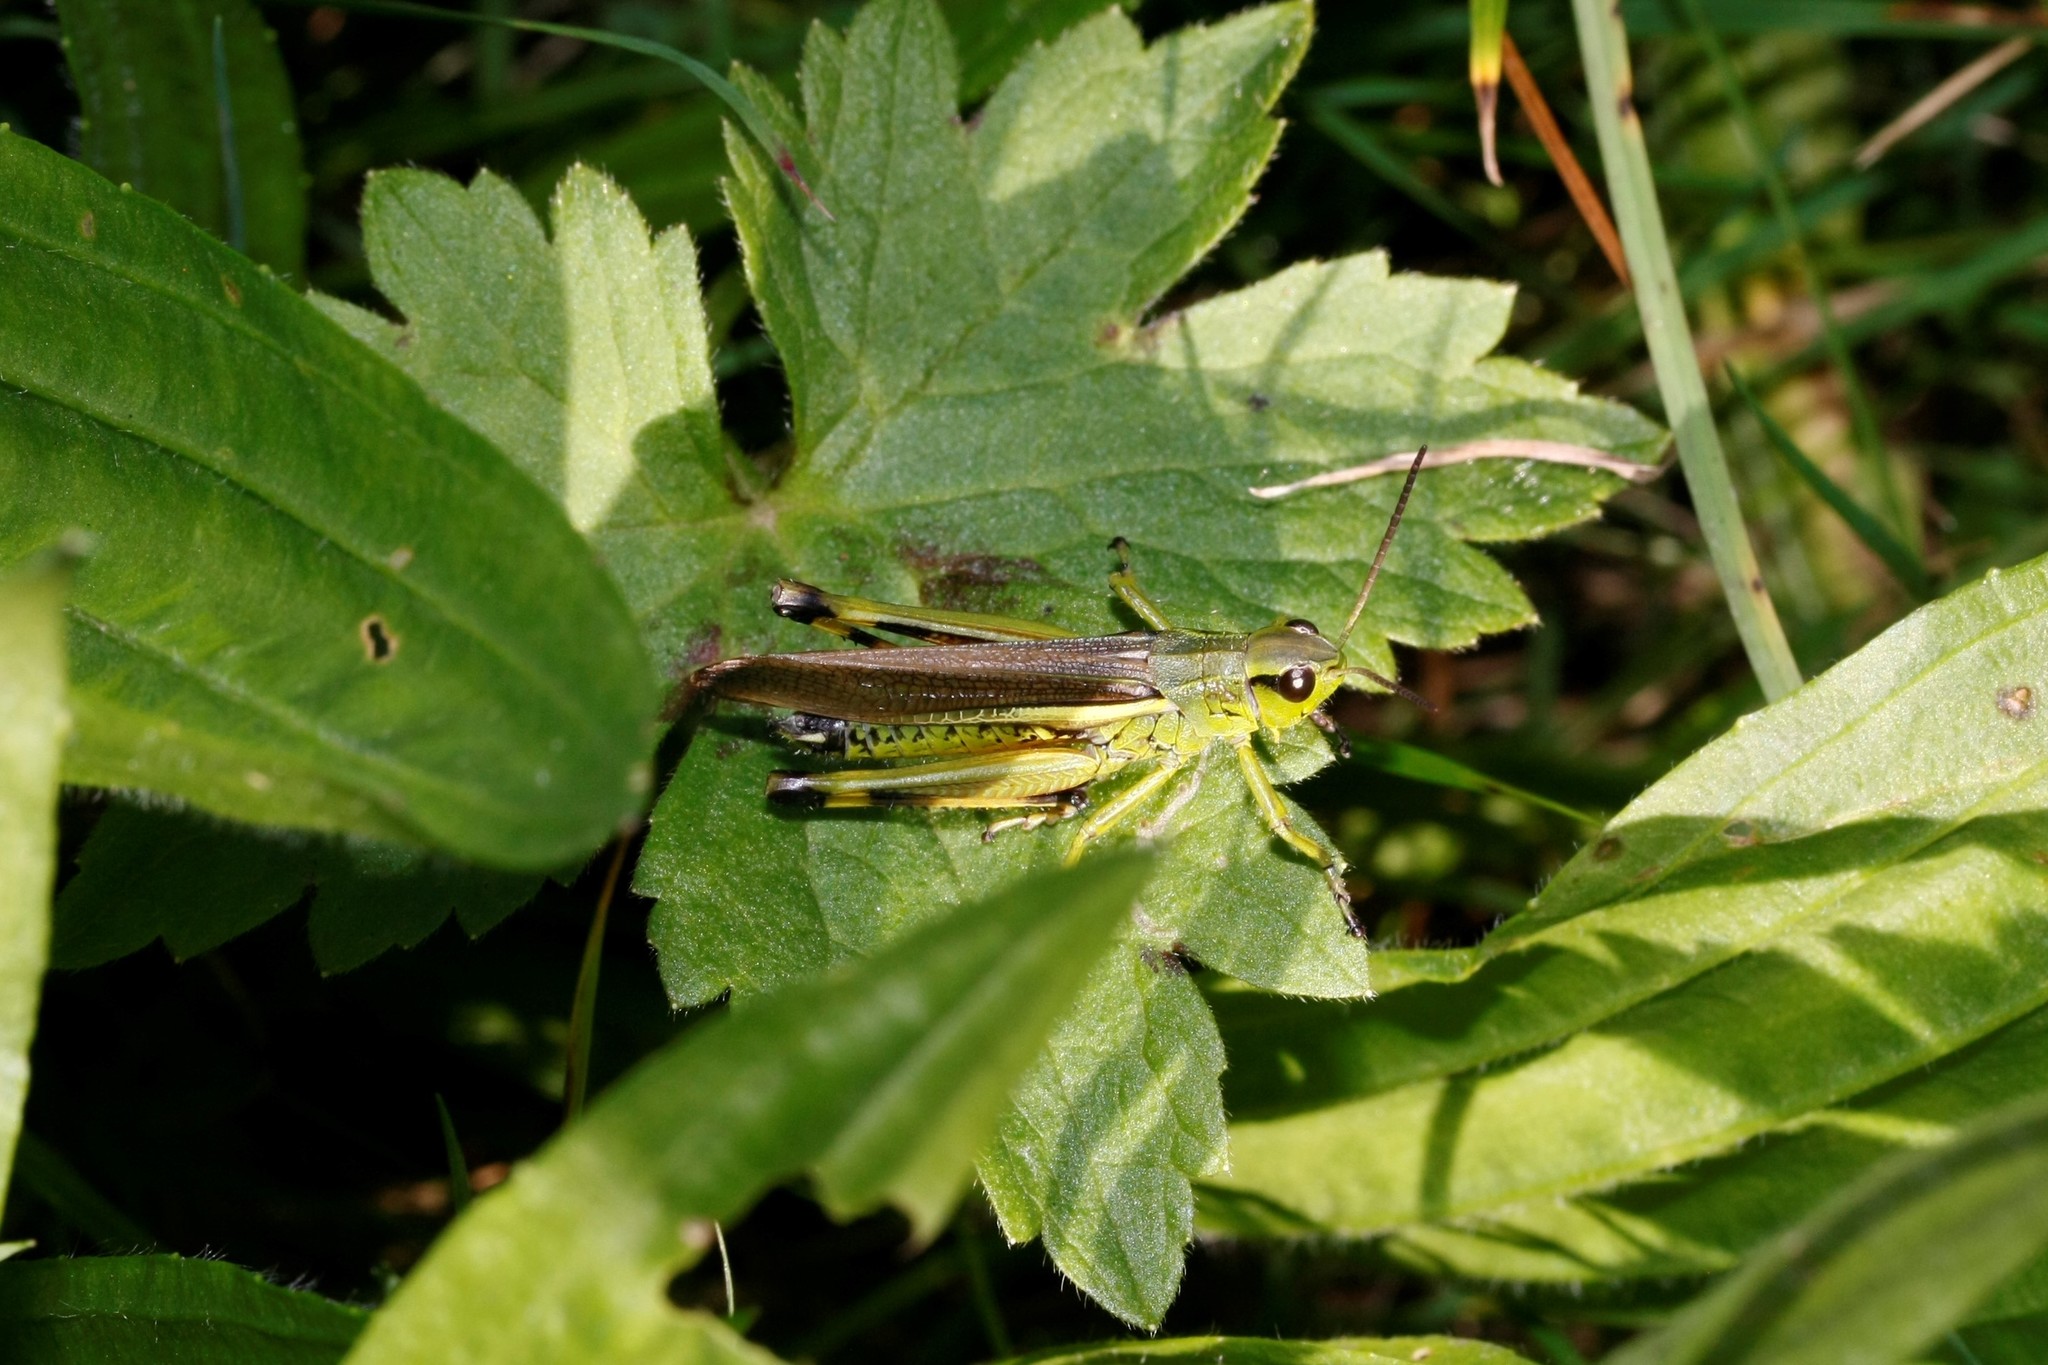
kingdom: Animalia
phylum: Arthropoda
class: Insecta
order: Orthoptera
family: Acrididae
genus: Stethophyma
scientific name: Stethophyma grossum
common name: Large marsh grasshopper
